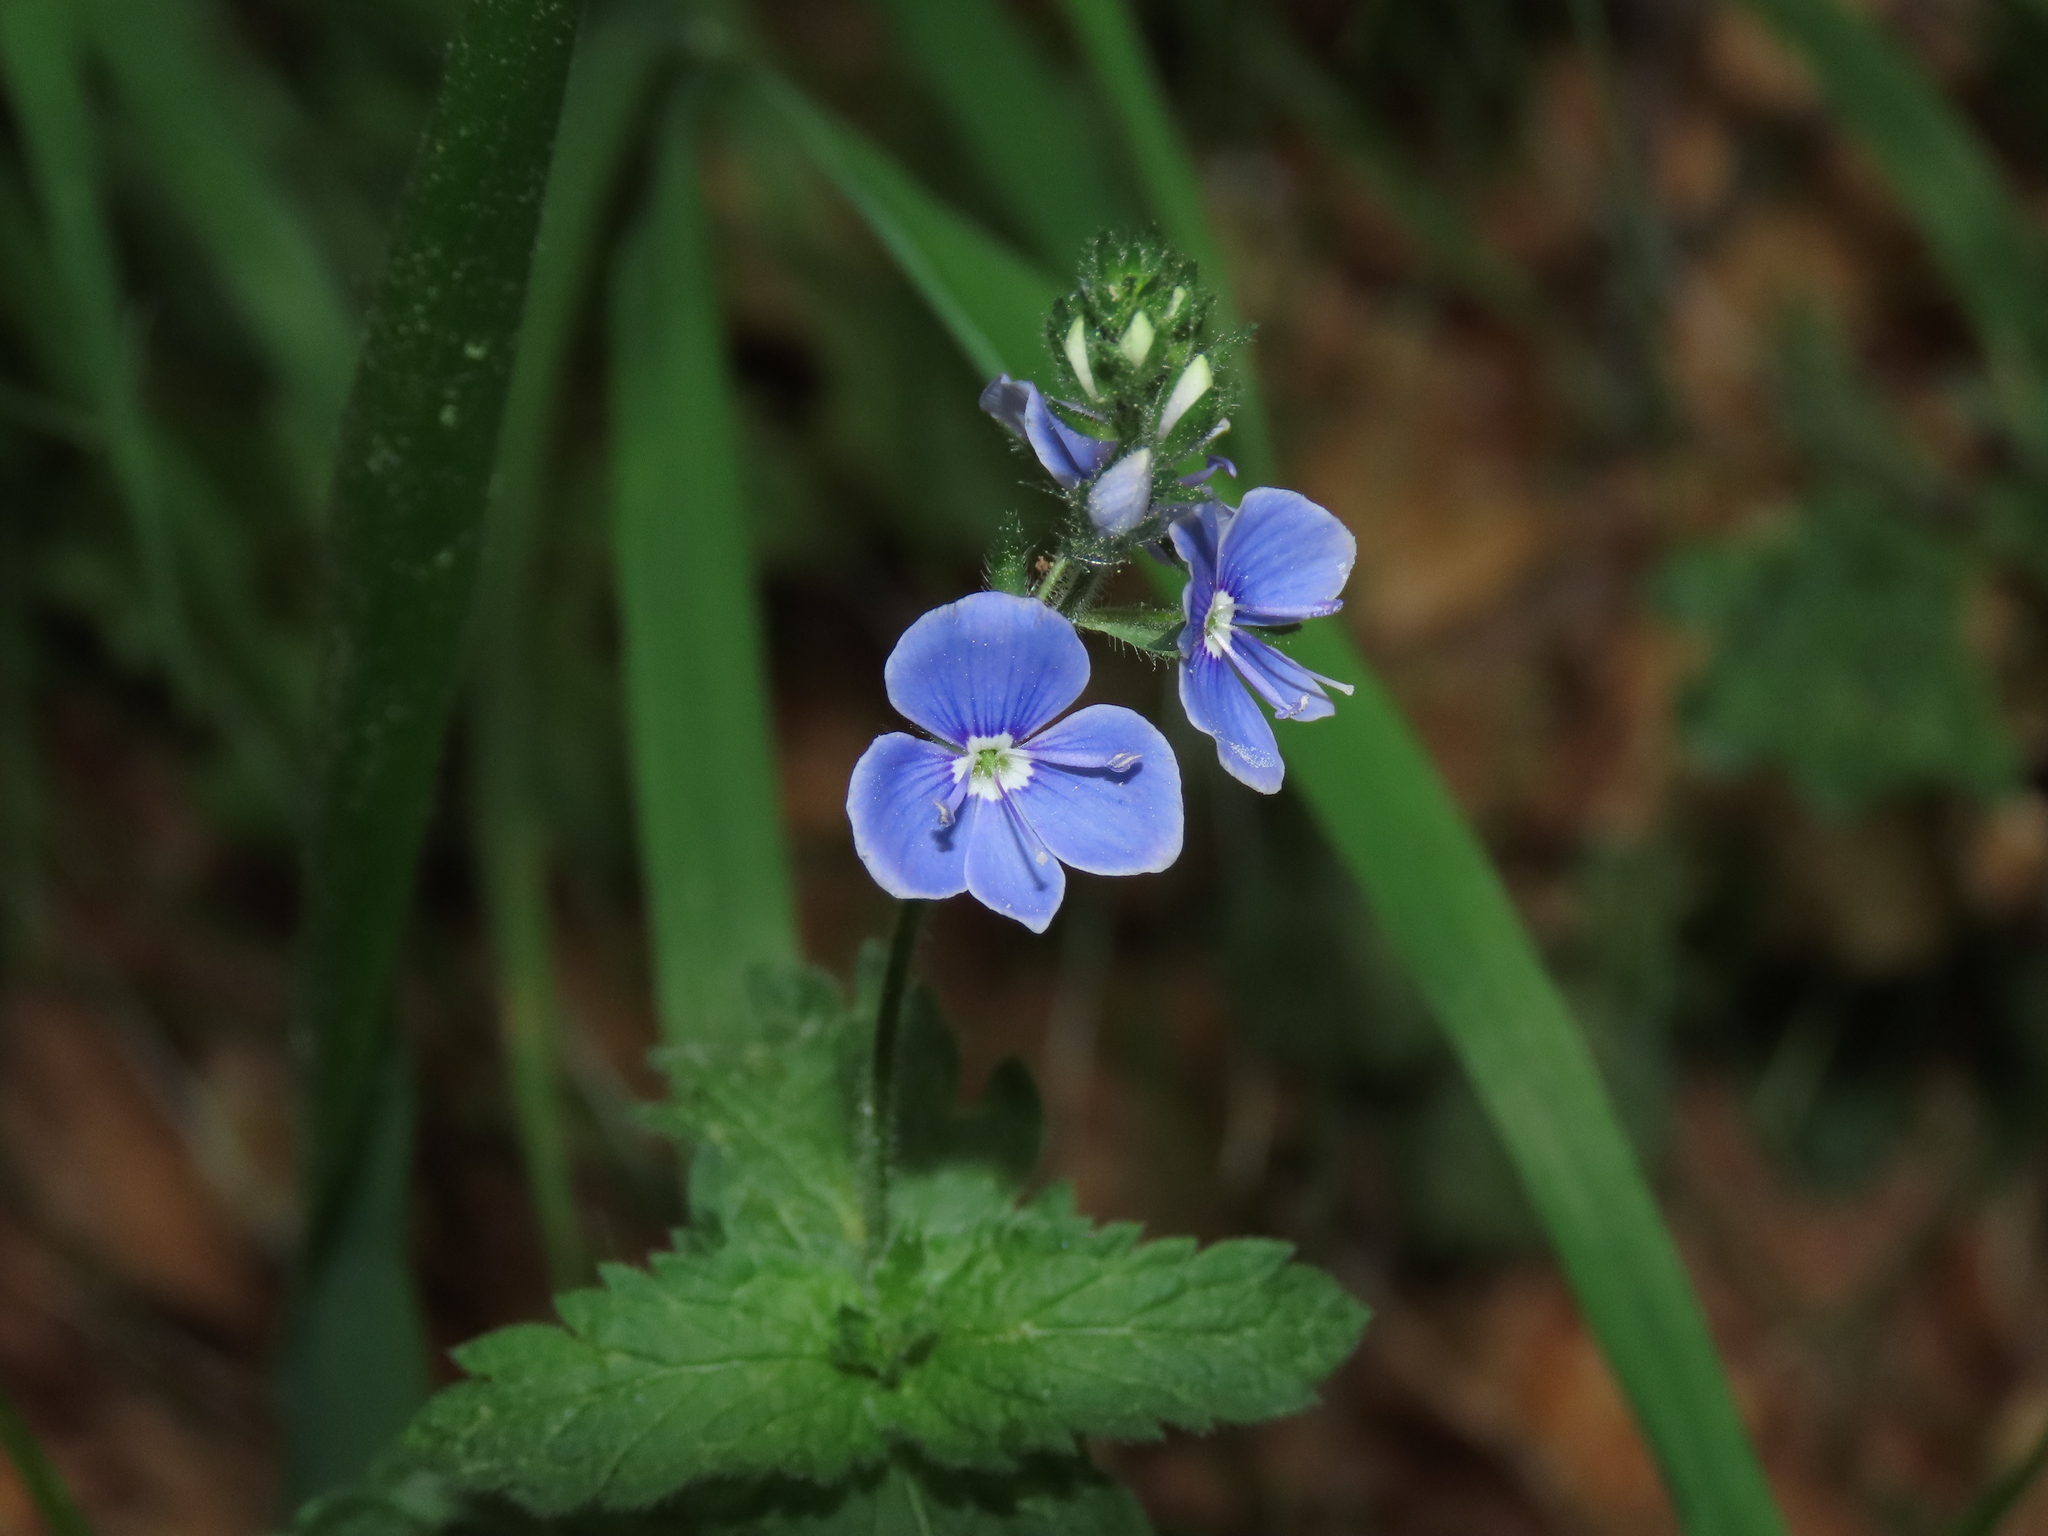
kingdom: Plantae
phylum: Tracheophyta
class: Magnoliopsida
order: Lamiales
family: Plantaginaceae
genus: Veronica
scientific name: Veronica chamaedrys
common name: Germander speedwell
